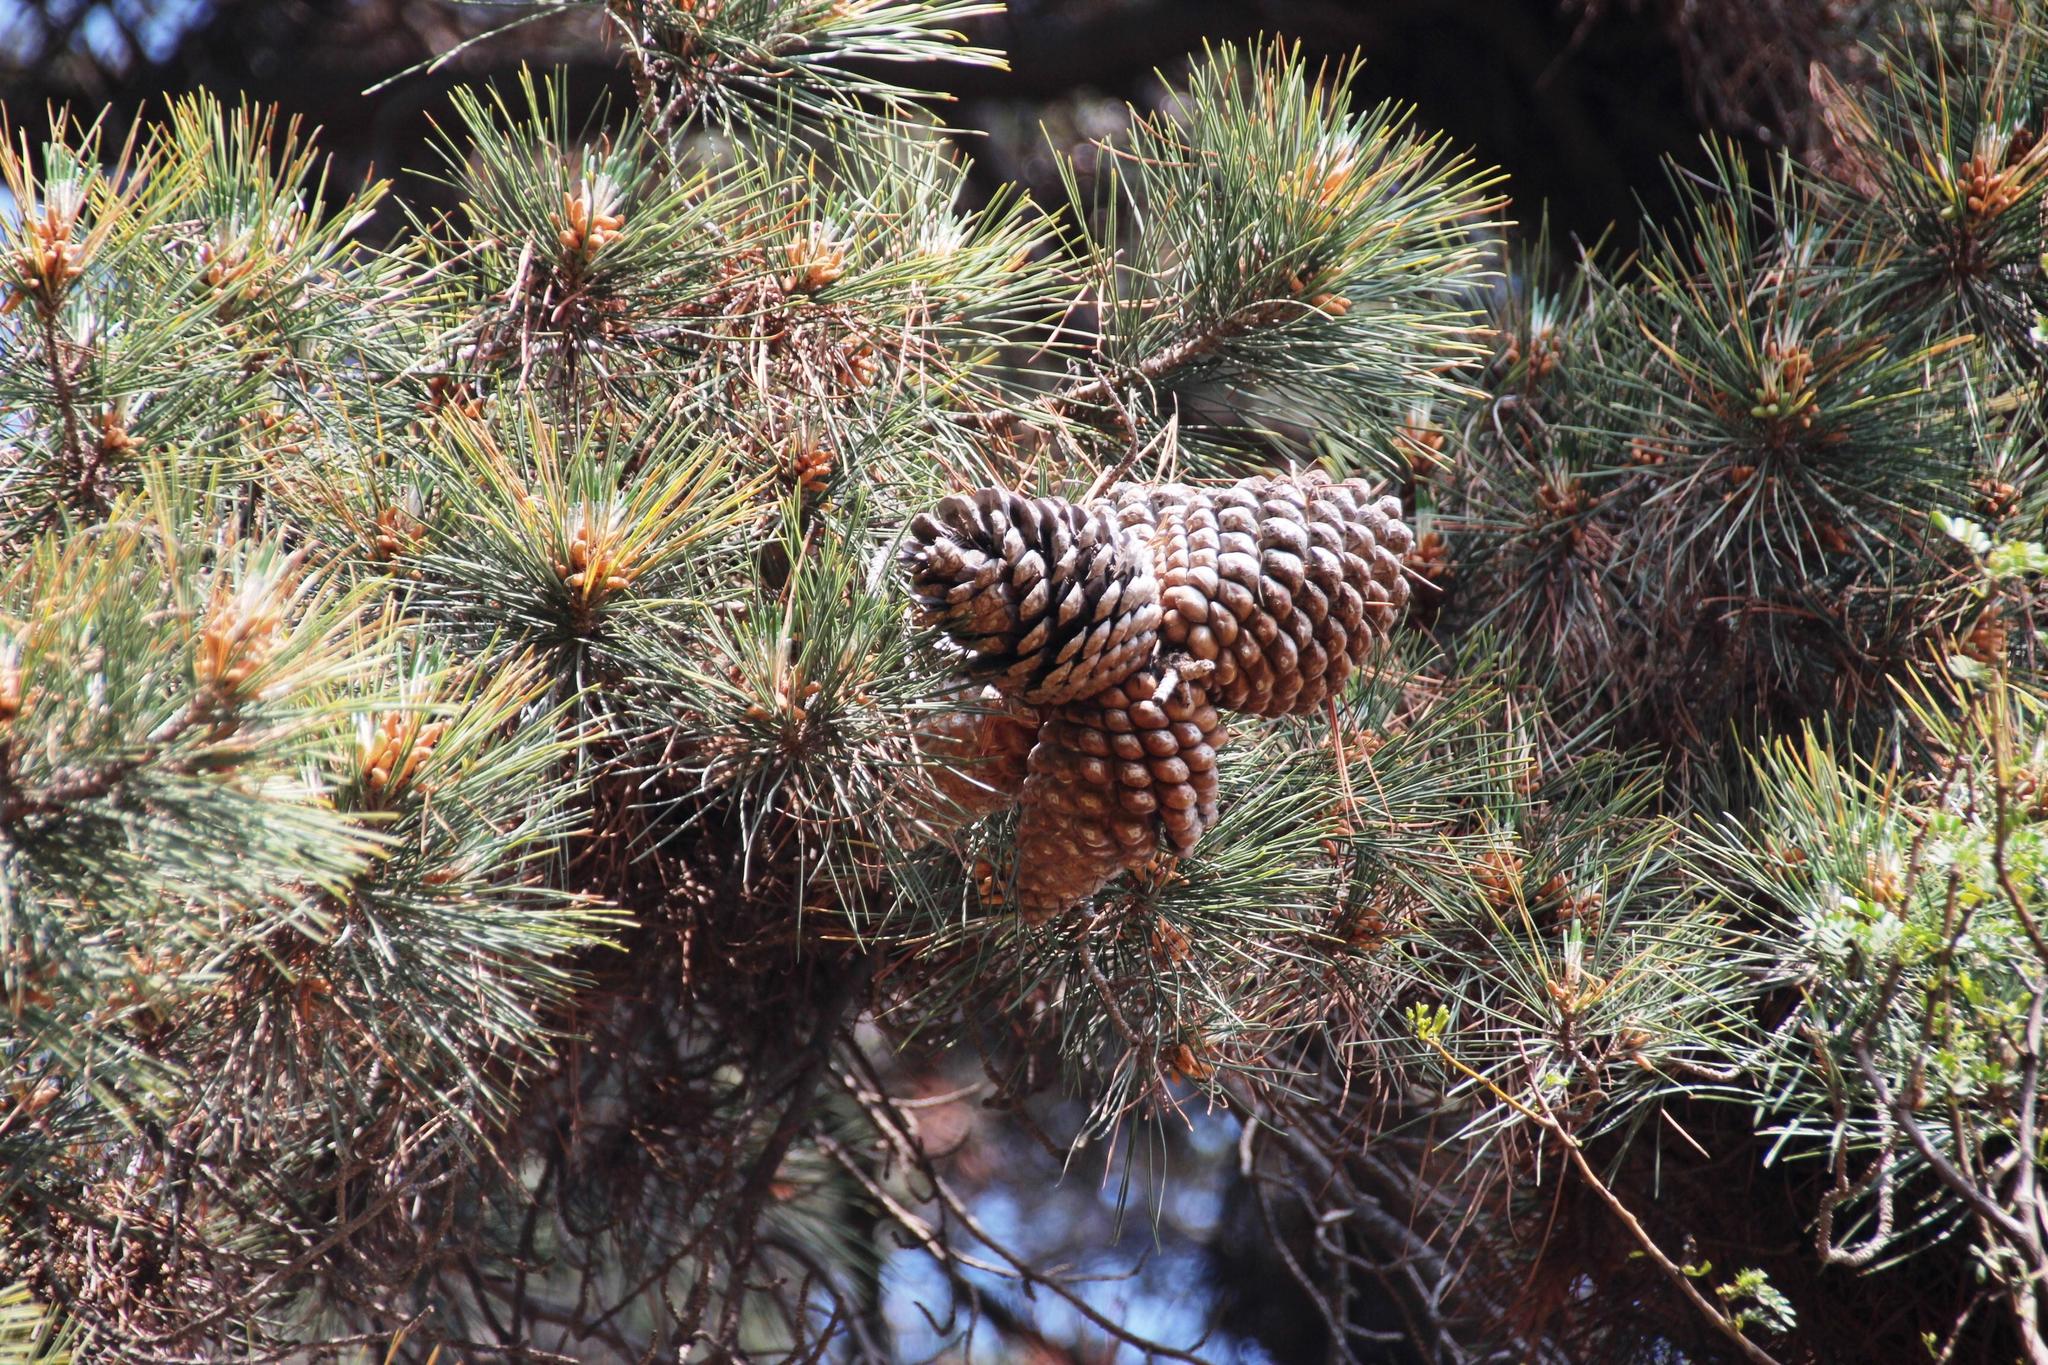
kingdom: Plantae
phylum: Tracheophyta
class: Pinopsida
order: Pinales
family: Pinaceae
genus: Pinus
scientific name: Pinus radiata
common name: Monterey pine
